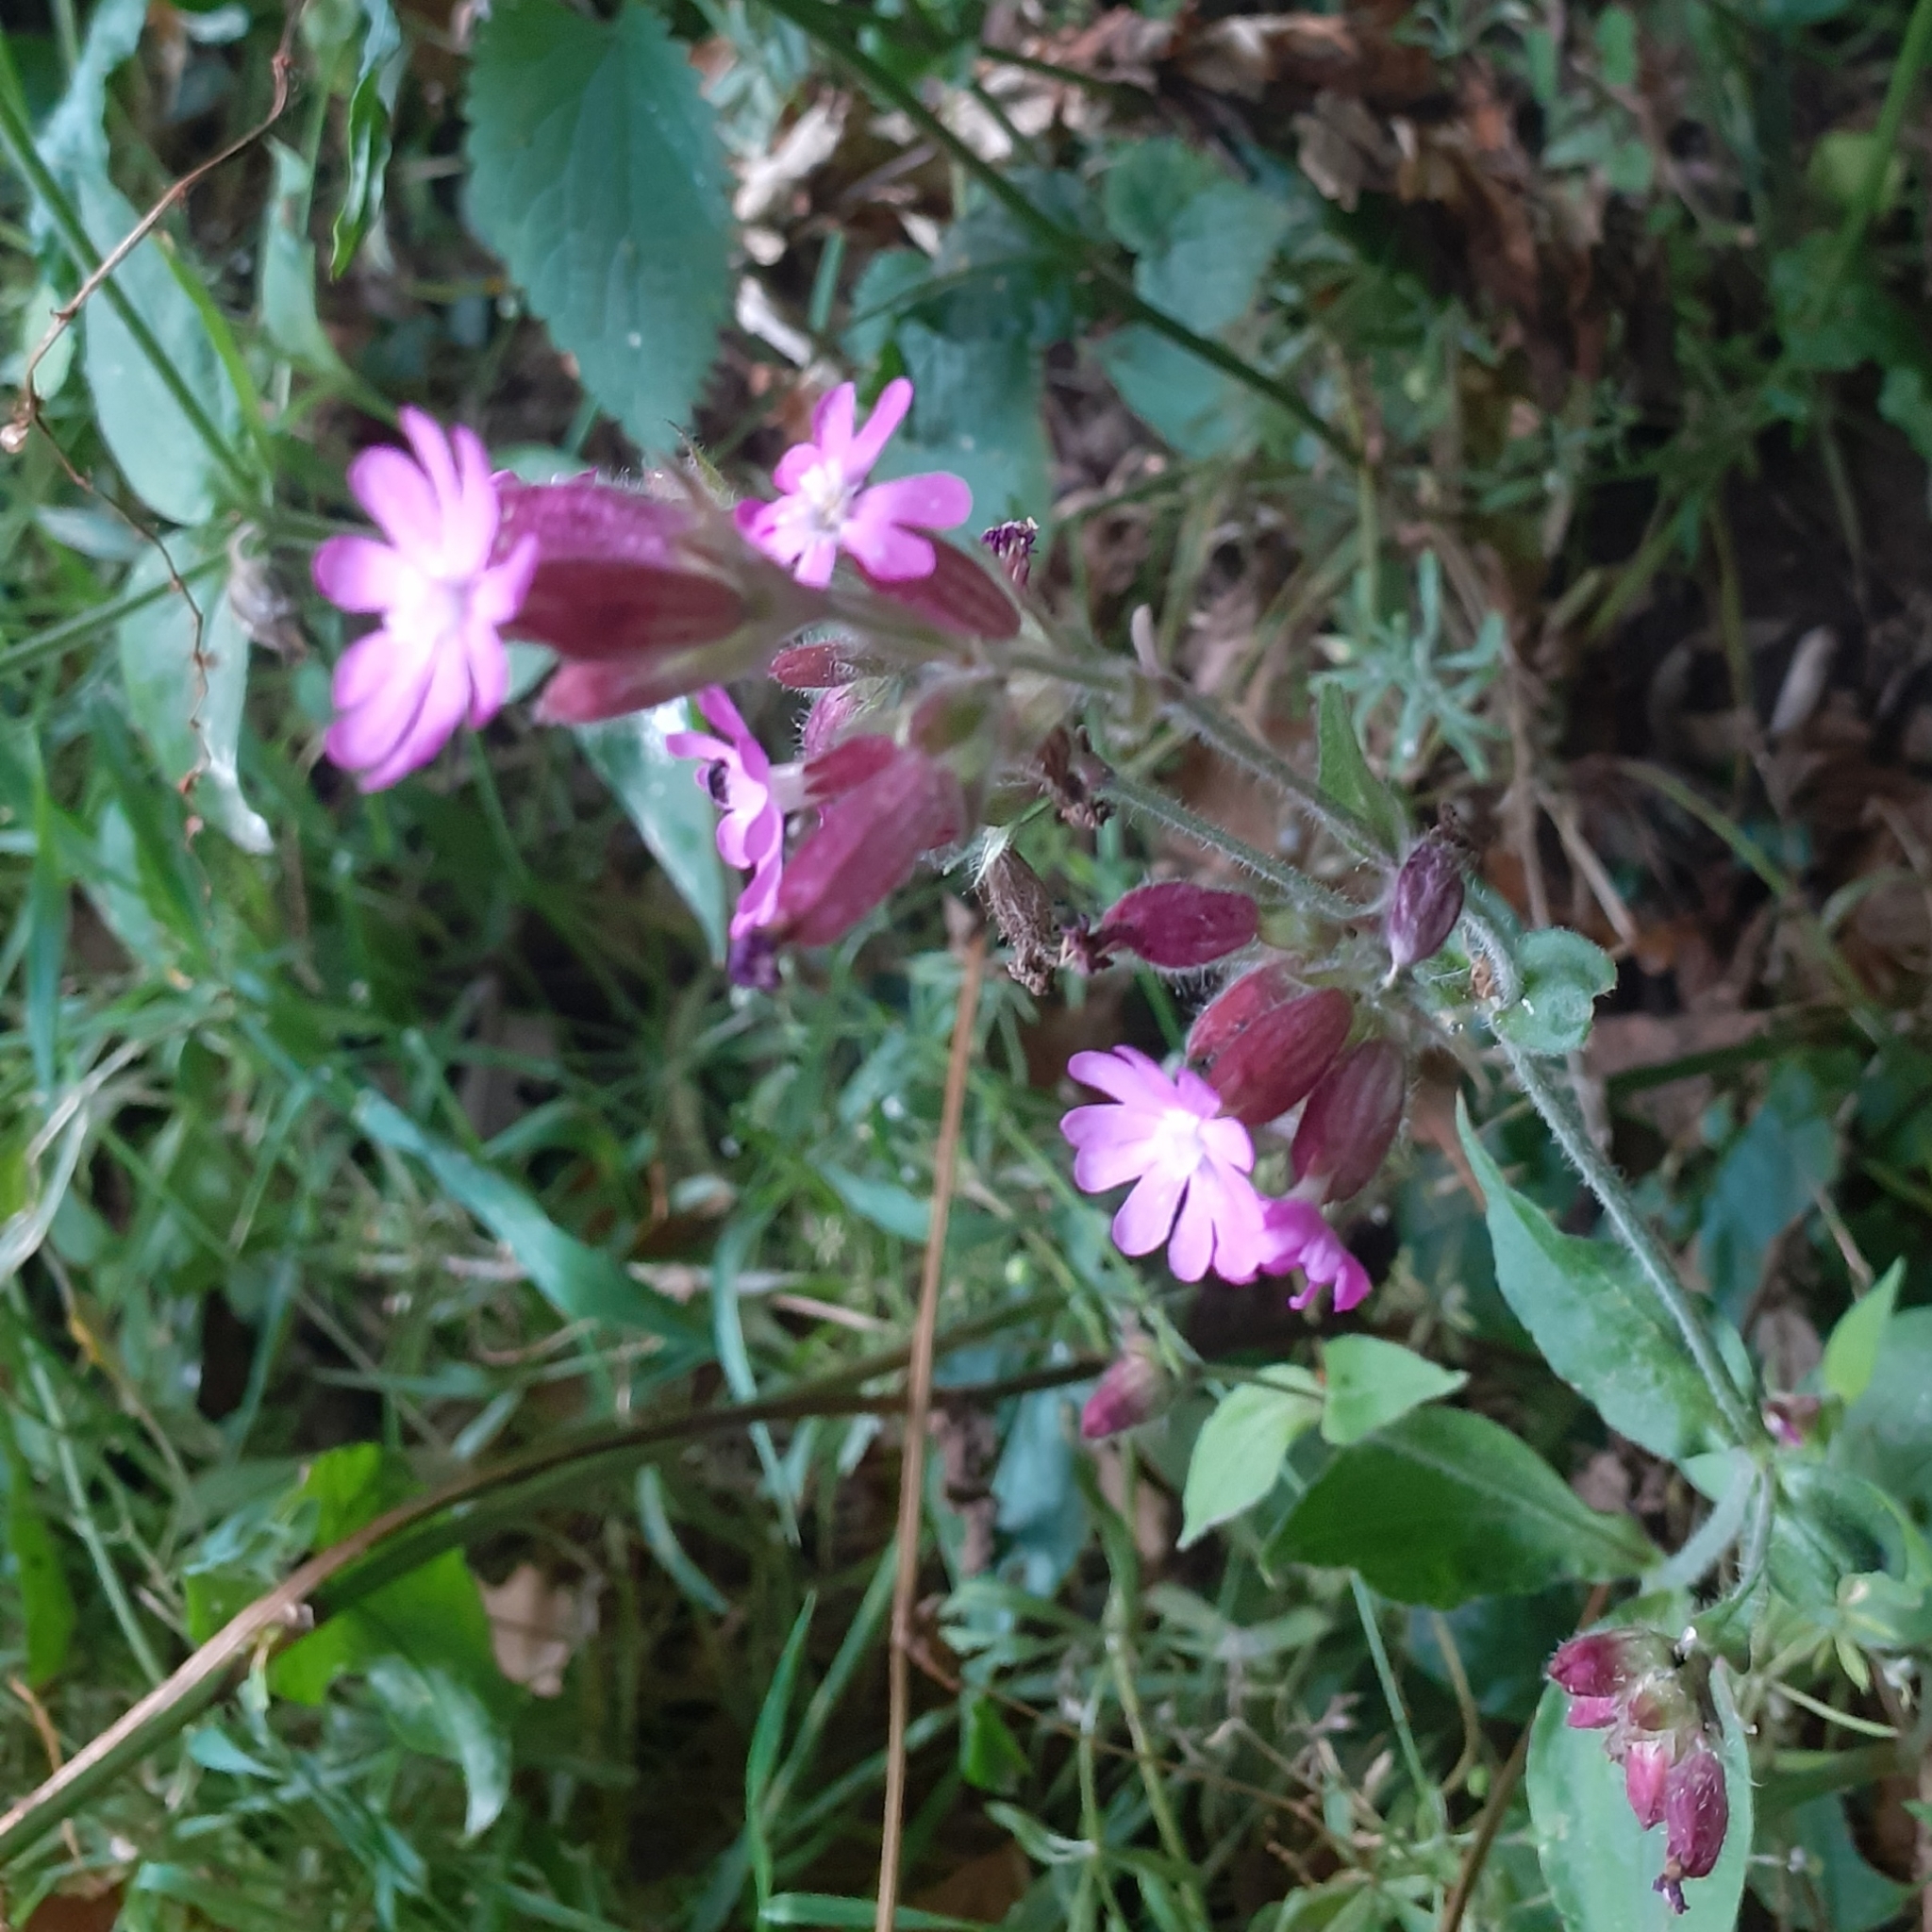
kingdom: Plantae
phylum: Tracheophyta
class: Magnoliopsida
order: Caryophyllales
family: Caryophyllaceae
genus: Silene
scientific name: Silene dioica
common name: Red campion
